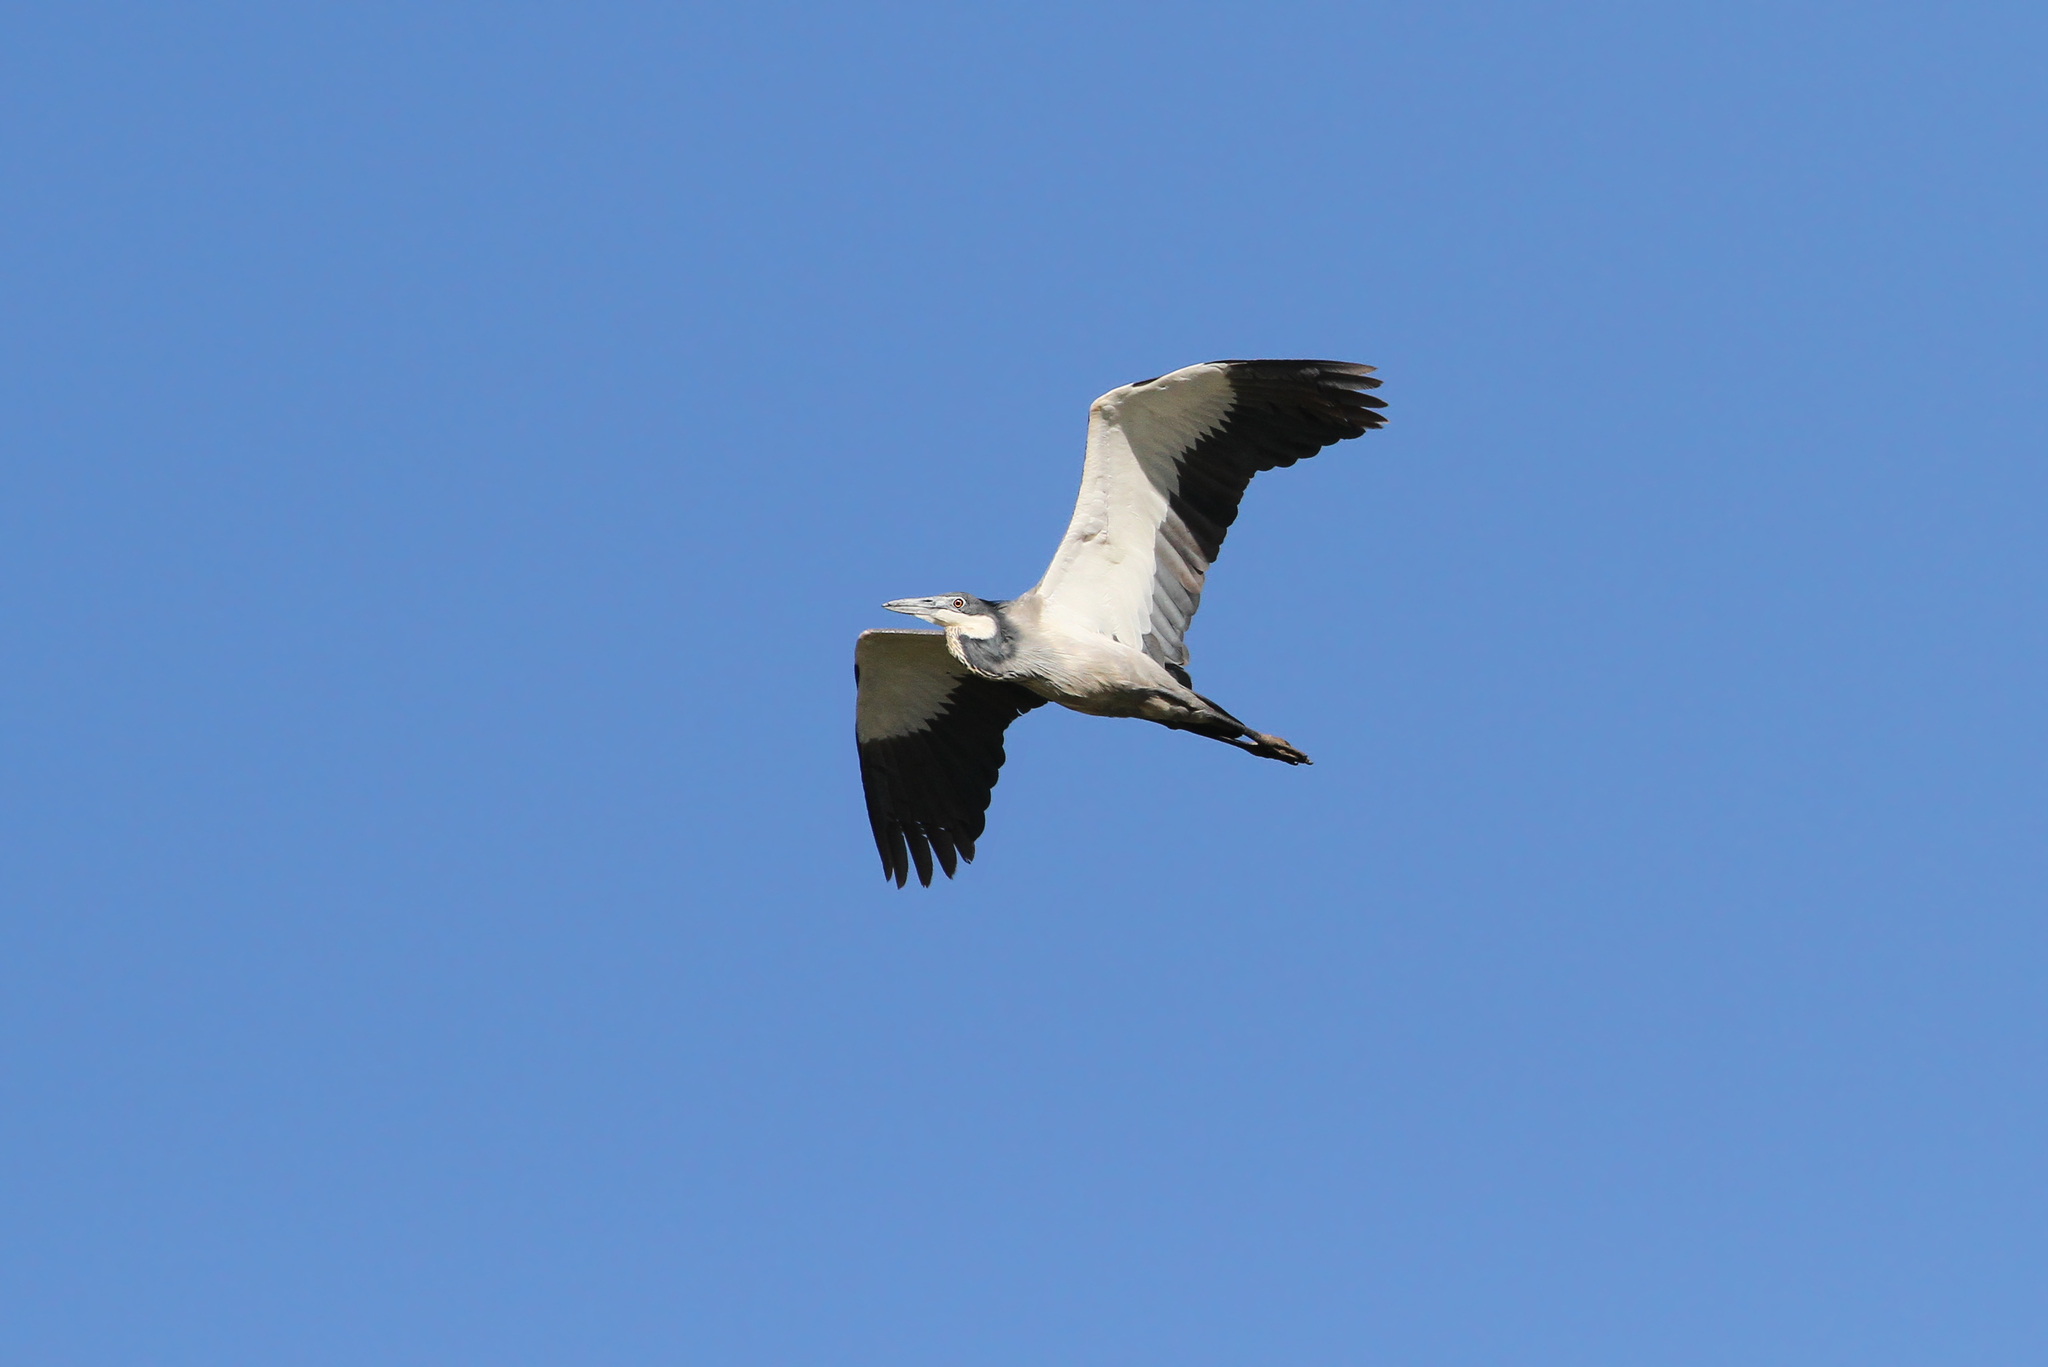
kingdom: Animalia
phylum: Chordata
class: Aves
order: Pelecaniformes
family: Ardeidae
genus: Ardea
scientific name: Ardea melanocephala
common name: Black-headed heron
